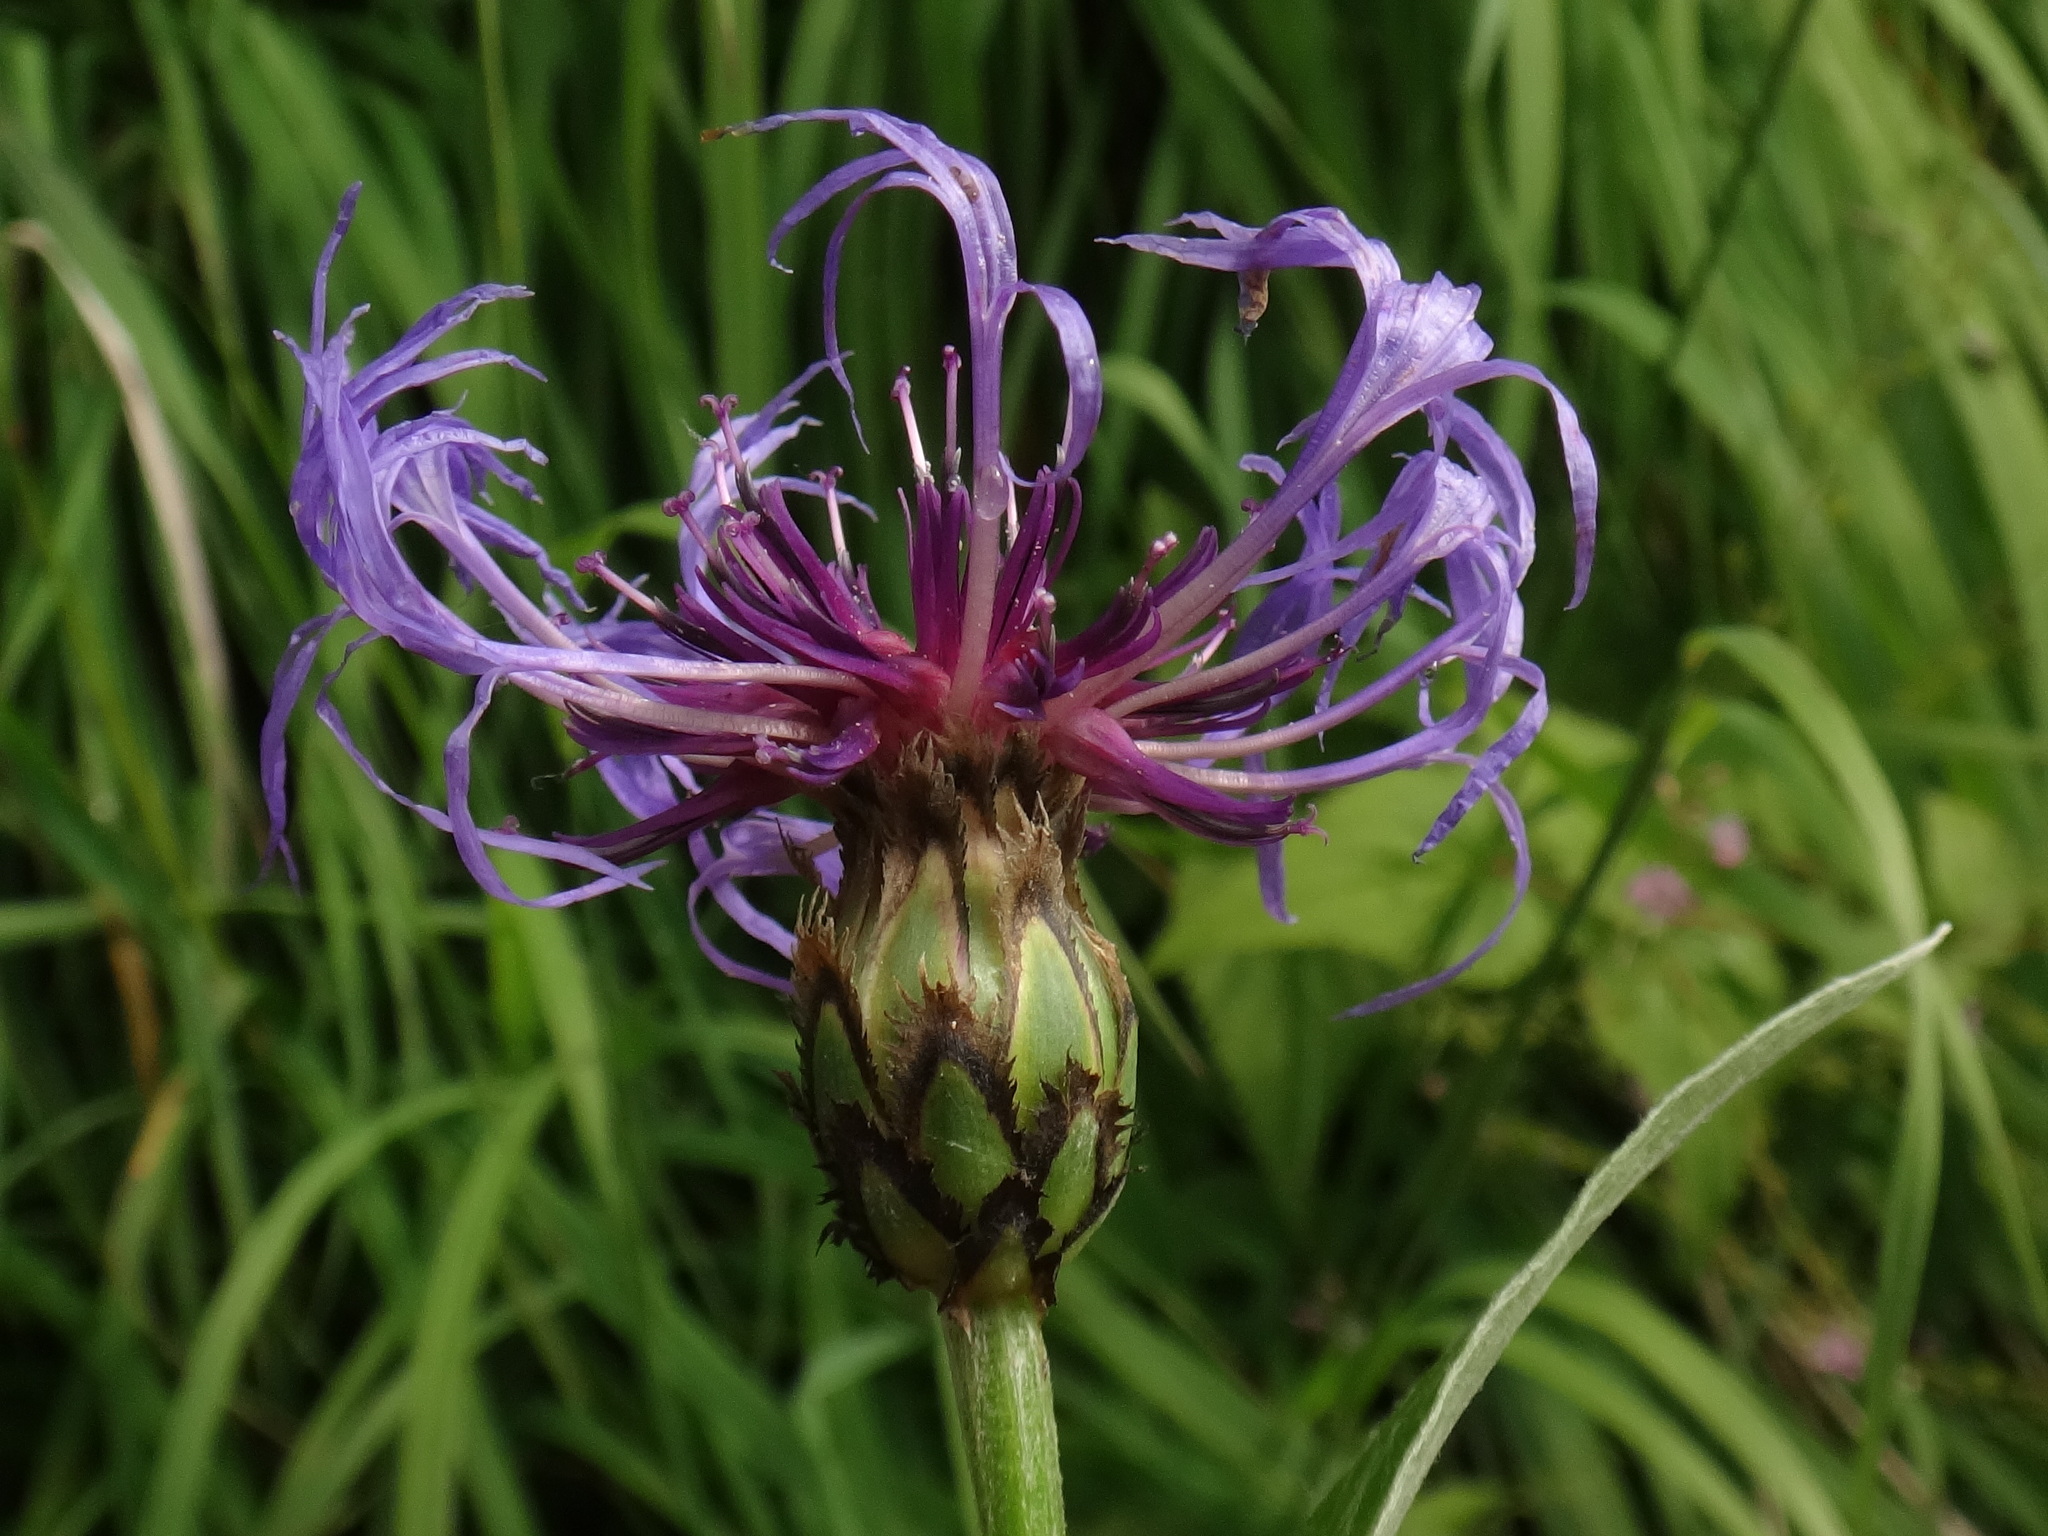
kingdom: Plantae
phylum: Tracheophyta
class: Magnoliopsida
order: Asterales
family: Asteraceae
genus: Centaurea
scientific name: Centaurea montana
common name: Perennial cornflower
